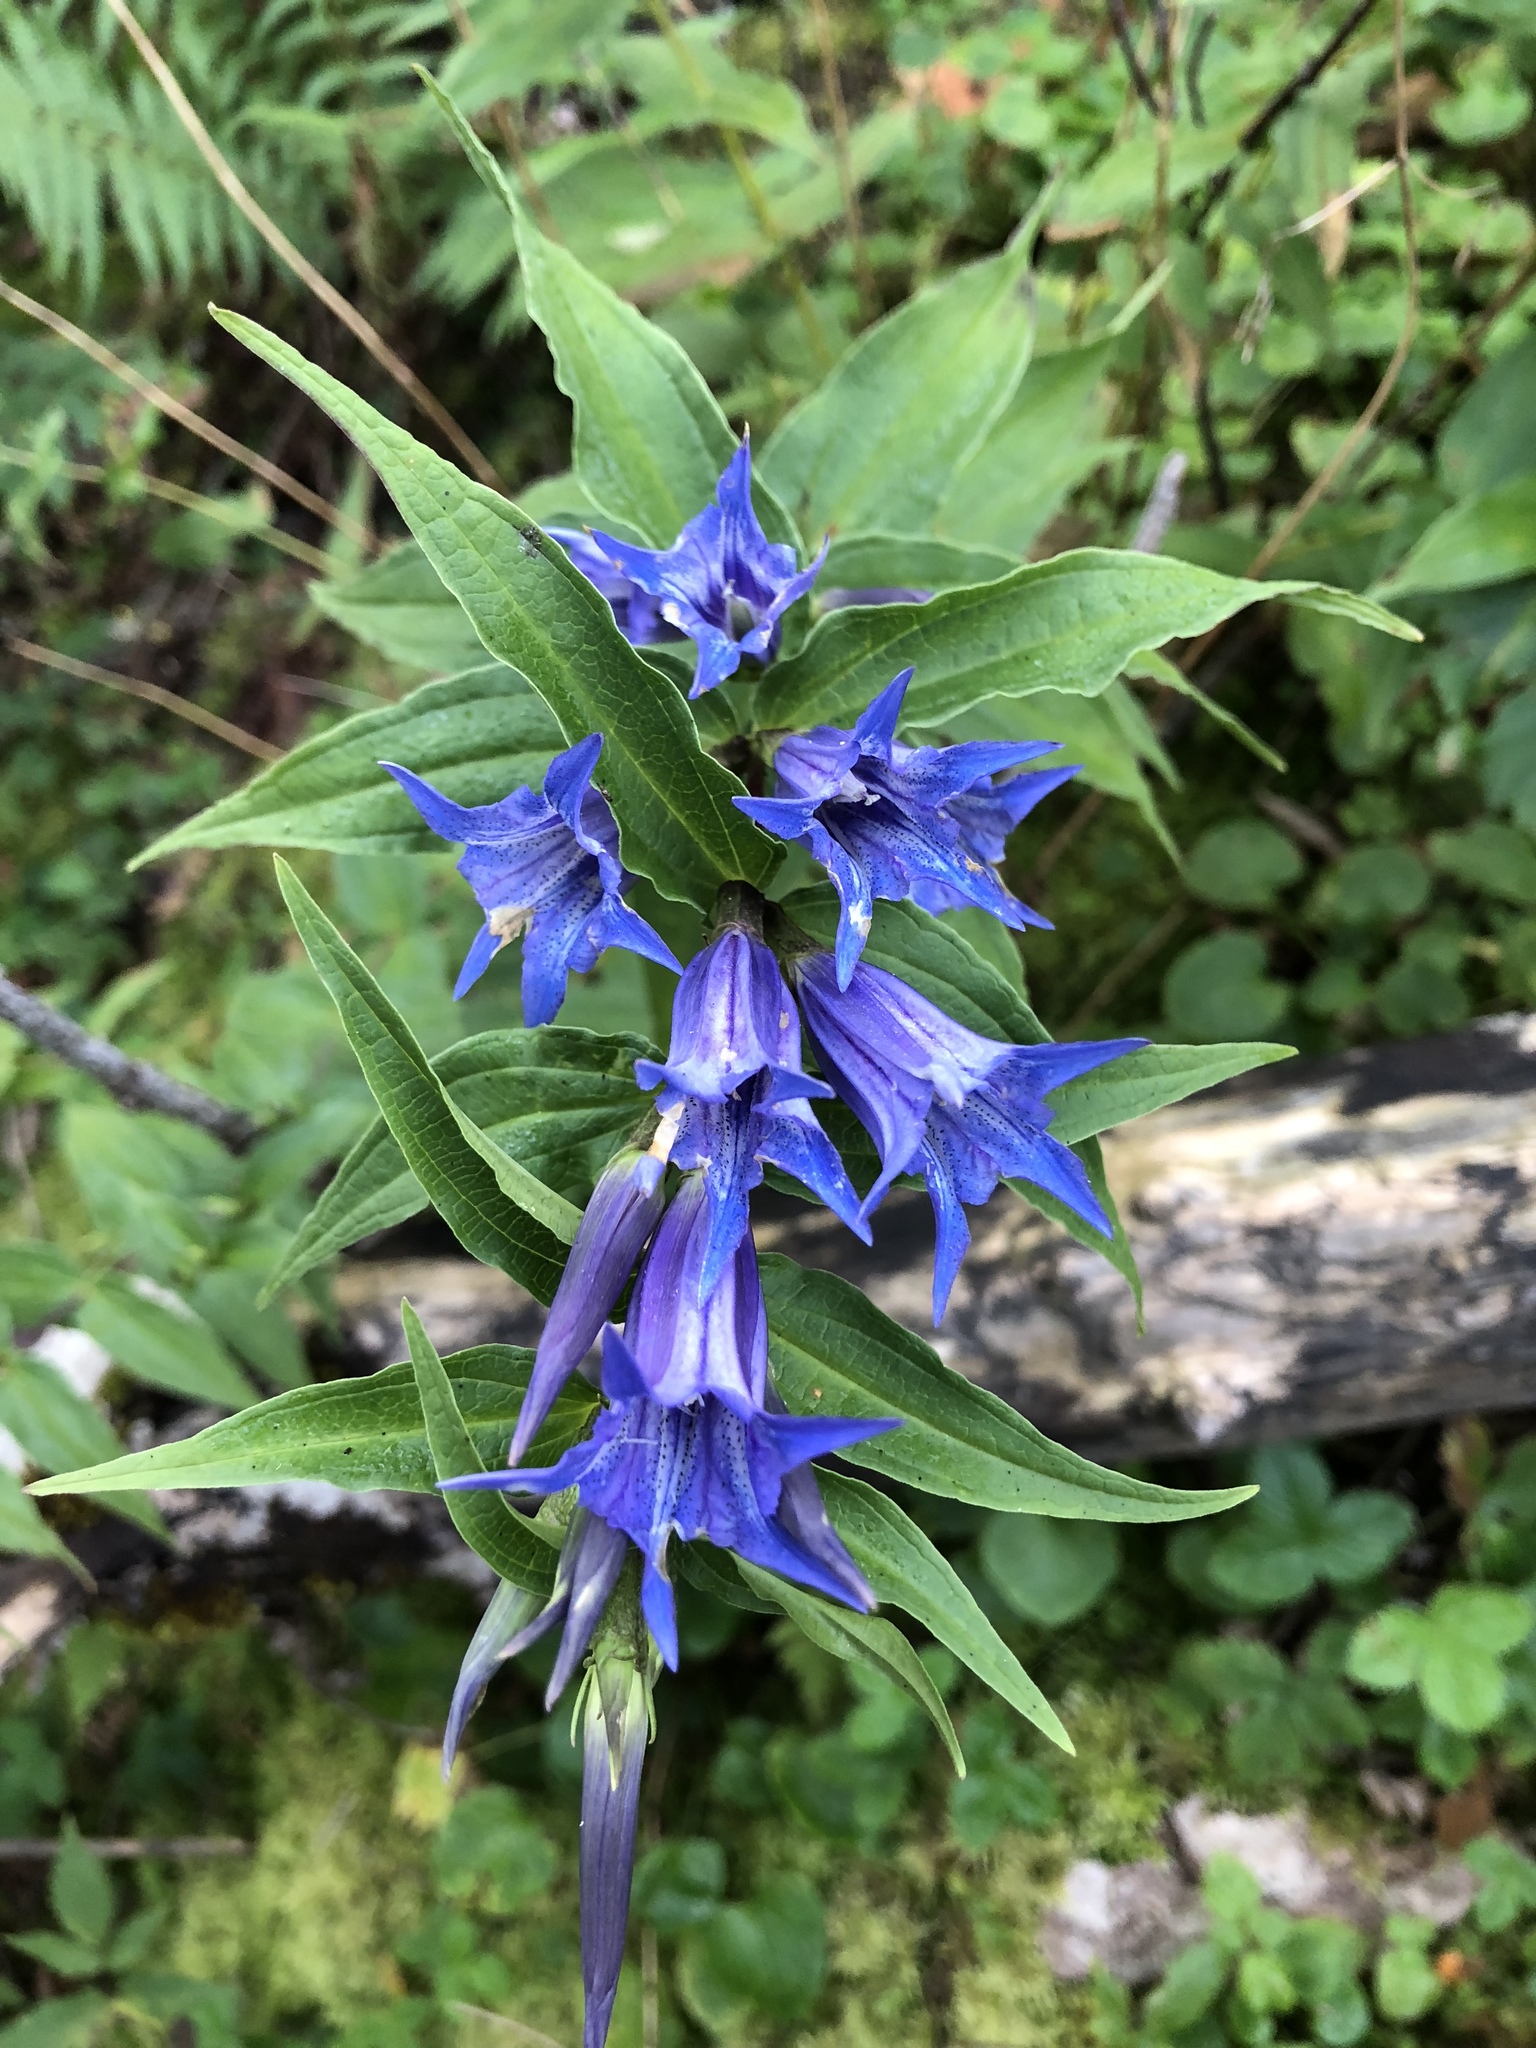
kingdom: Plantae
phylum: Tracheophyta
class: Magnoliopsida
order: Gentianales
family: Gentianaceae
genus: Gentiana
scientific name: Gentiana asclepiadea
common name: Willow gentian
